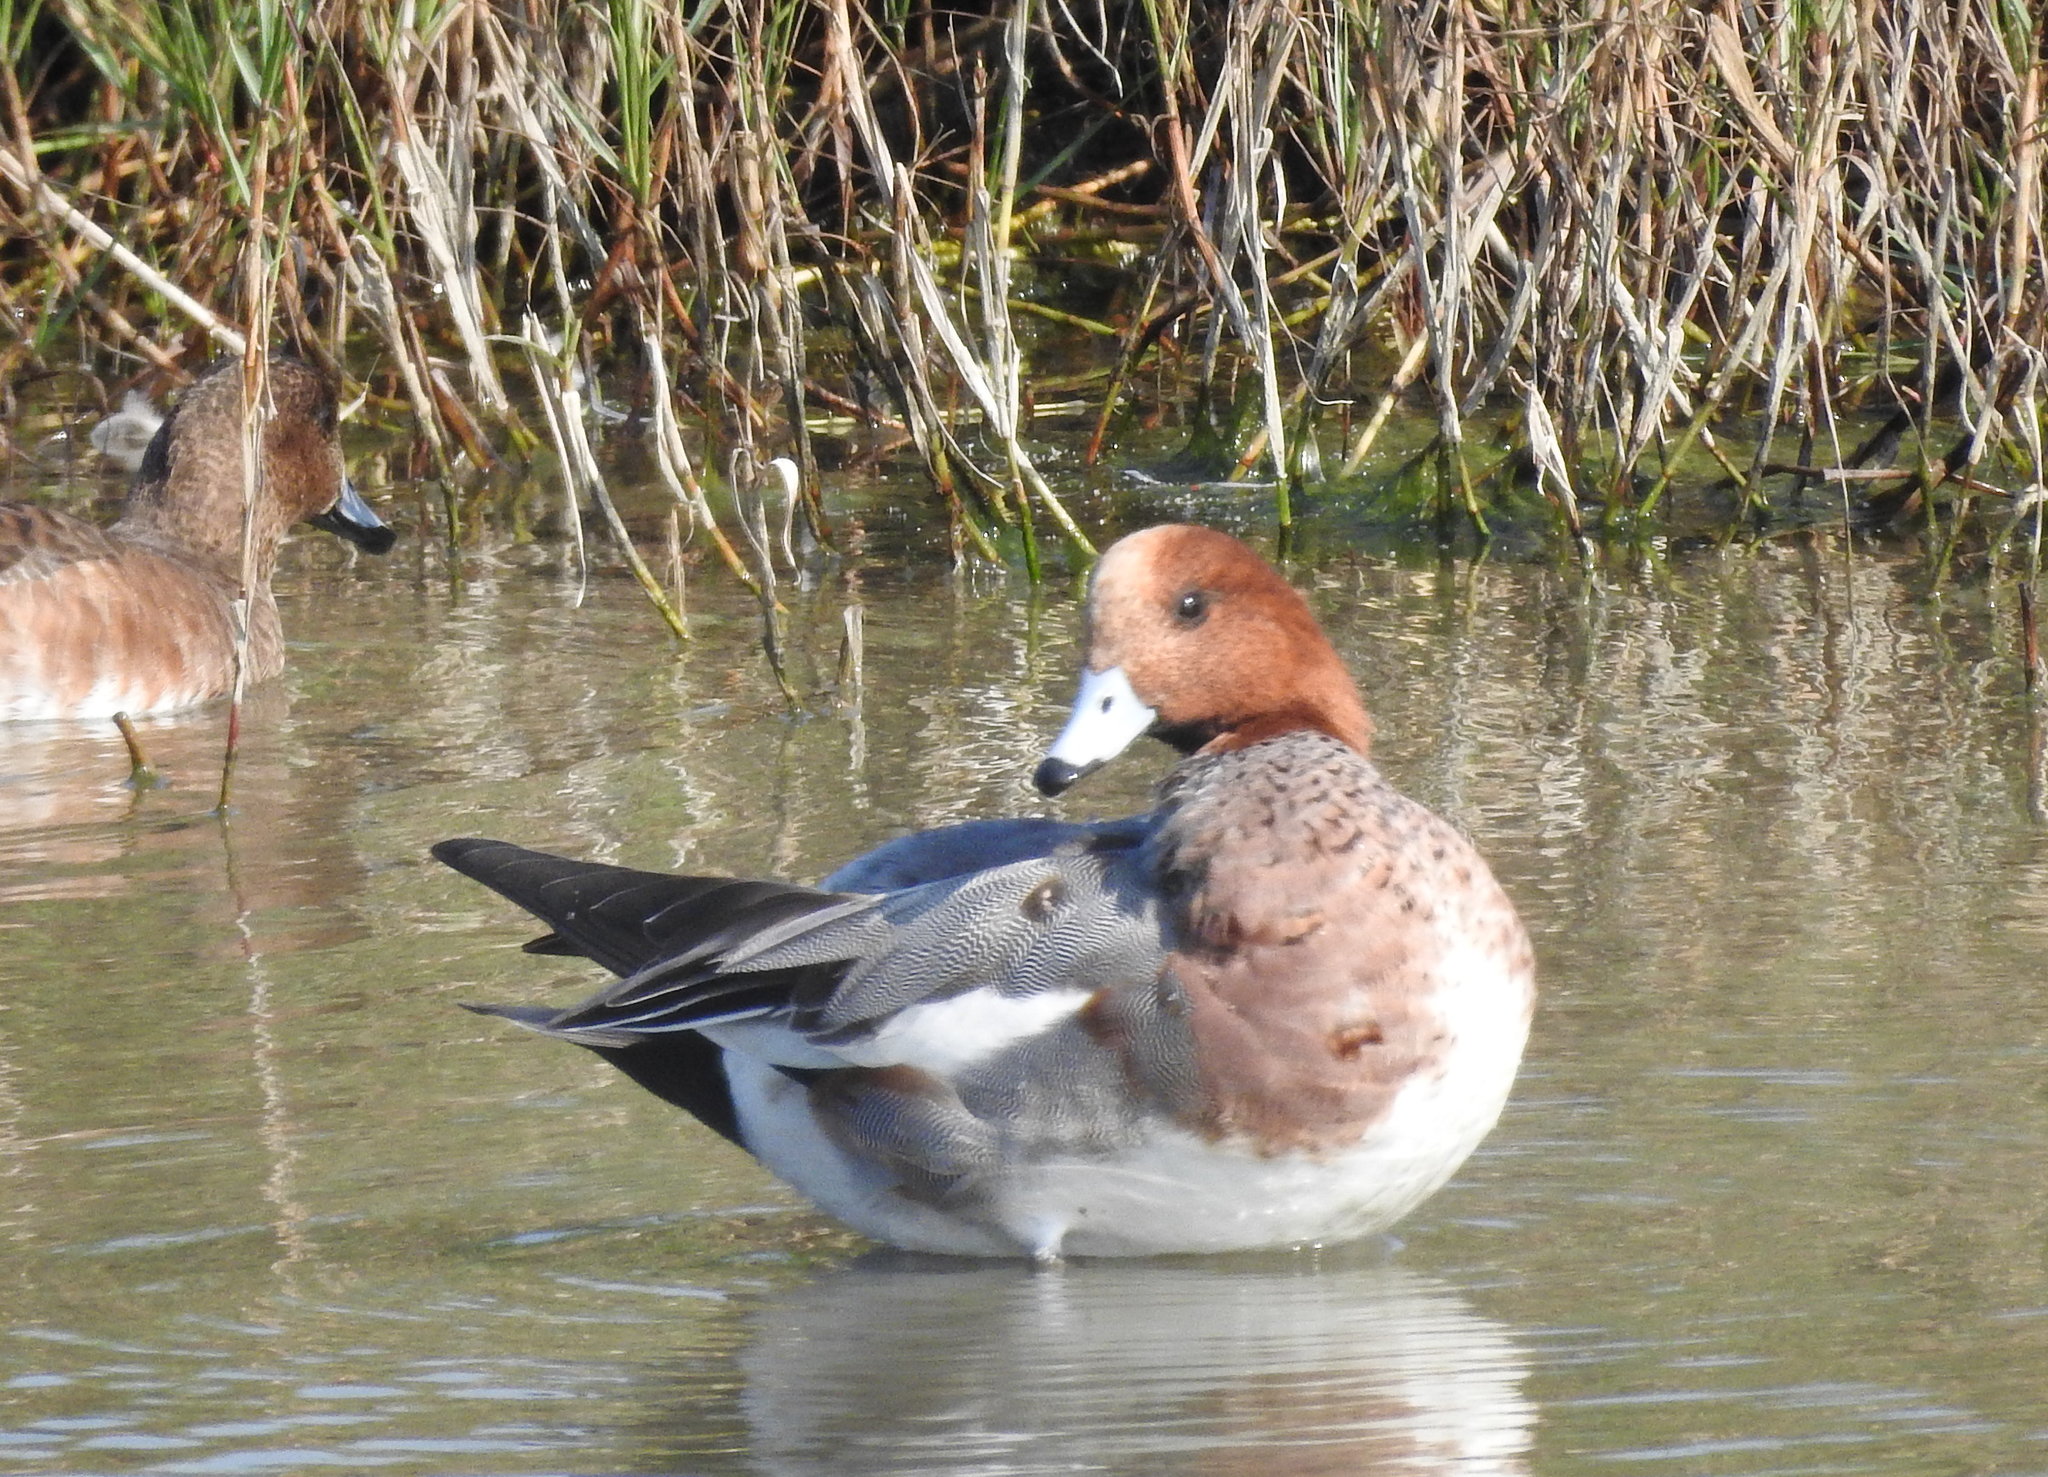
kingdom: Animalia
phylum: Chordata
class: Aves
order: Anseriformes
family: Anatidae
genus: Mareca
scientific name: Mareca penelope
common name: Eurasian wigeon
